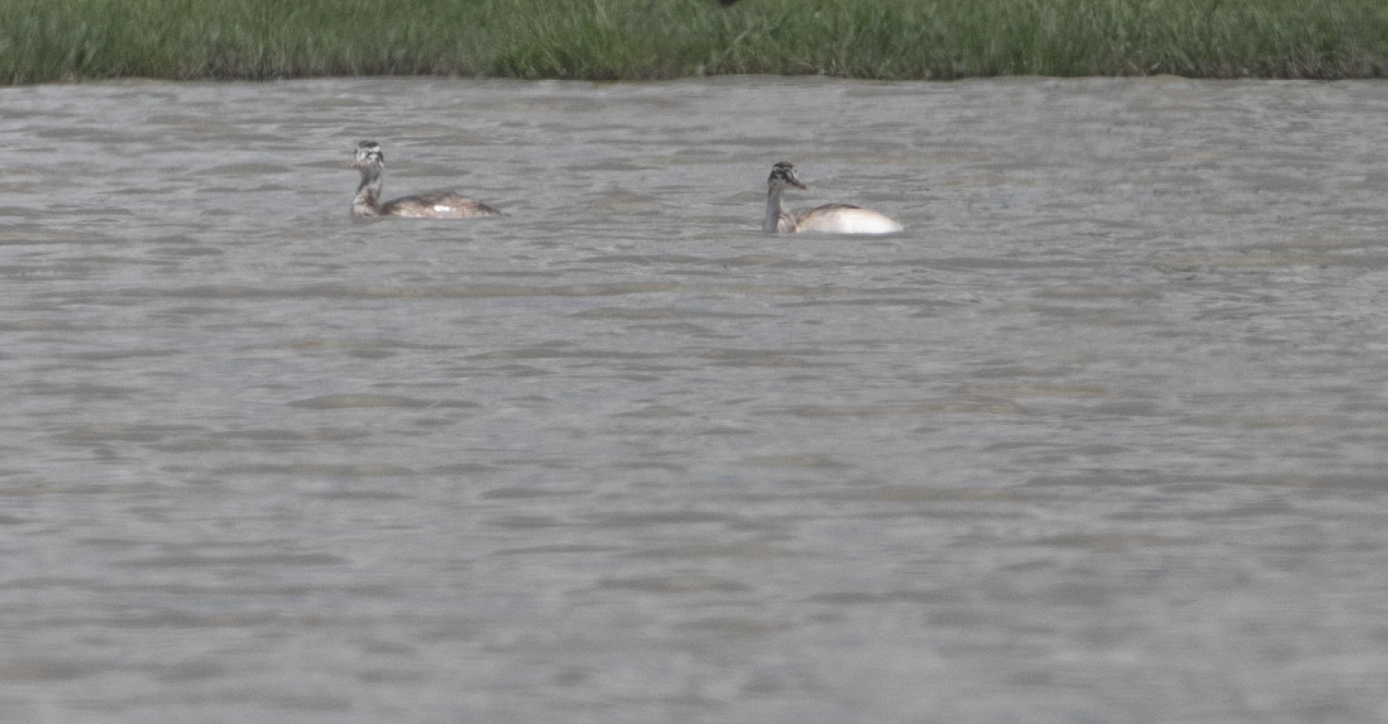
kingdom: Animalia
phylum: Chordata
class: Aves
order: Podicipediformes
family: Podicipedidae
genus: Podiceps
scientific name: Podiceps cristatus
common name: Great crested grebe
